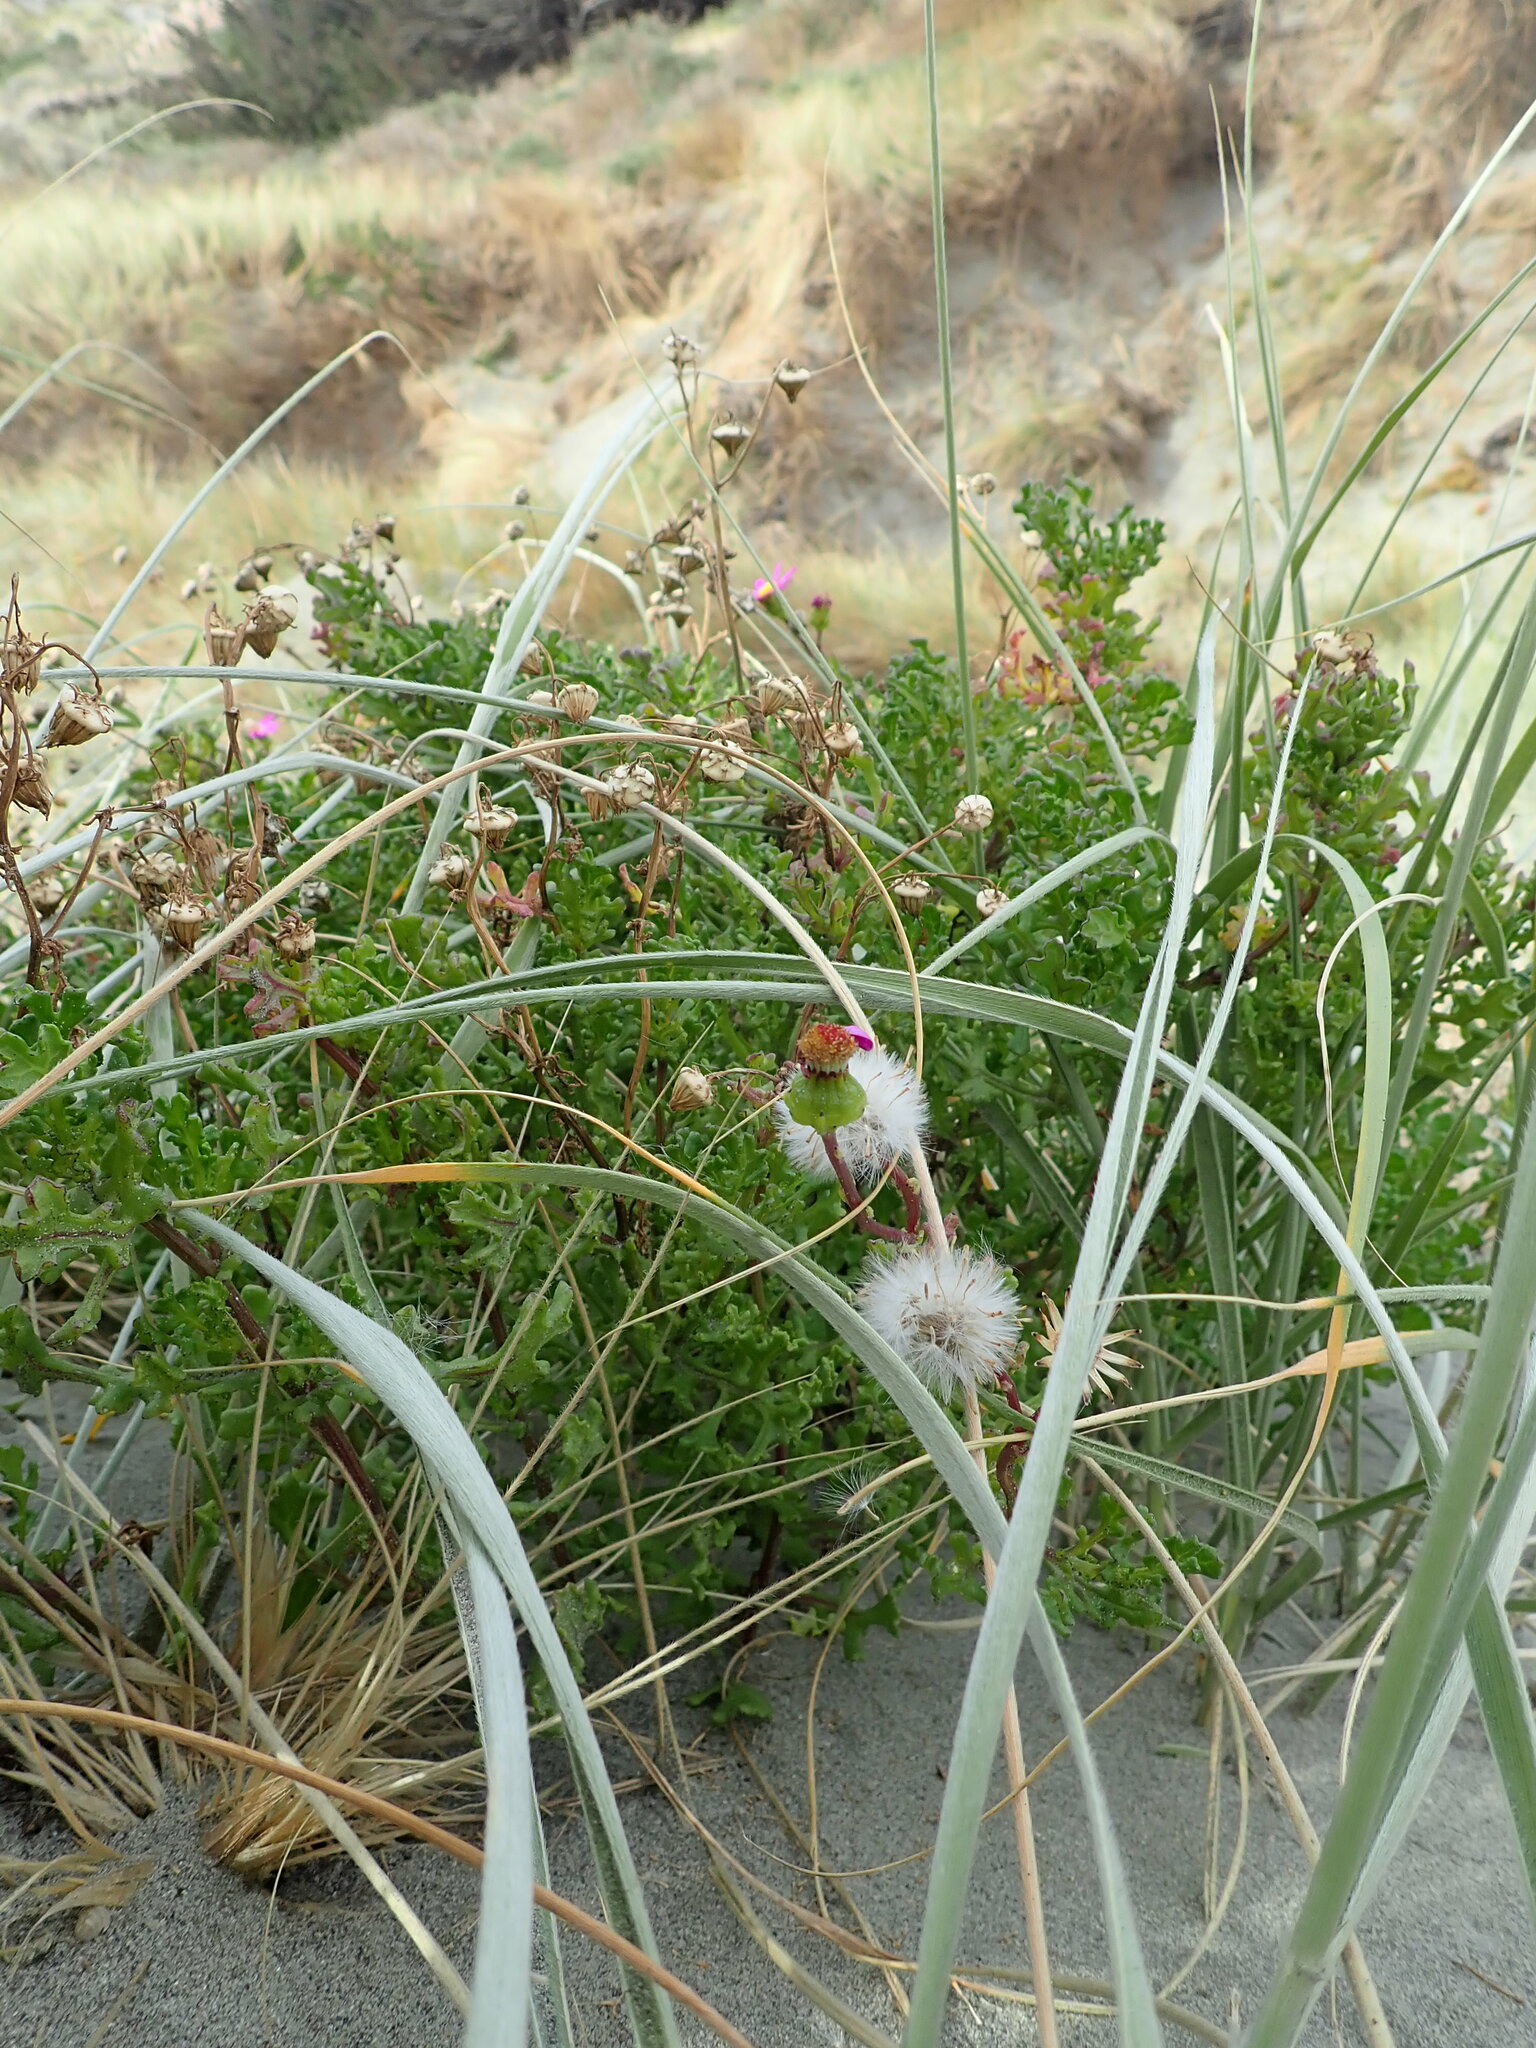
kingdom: Plantae
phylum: Tracheophyta
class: Magnoliopsida
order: Asterales
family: Asteraceae
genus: Senecio
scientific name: Senecio elegans
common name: Purple groundsel
